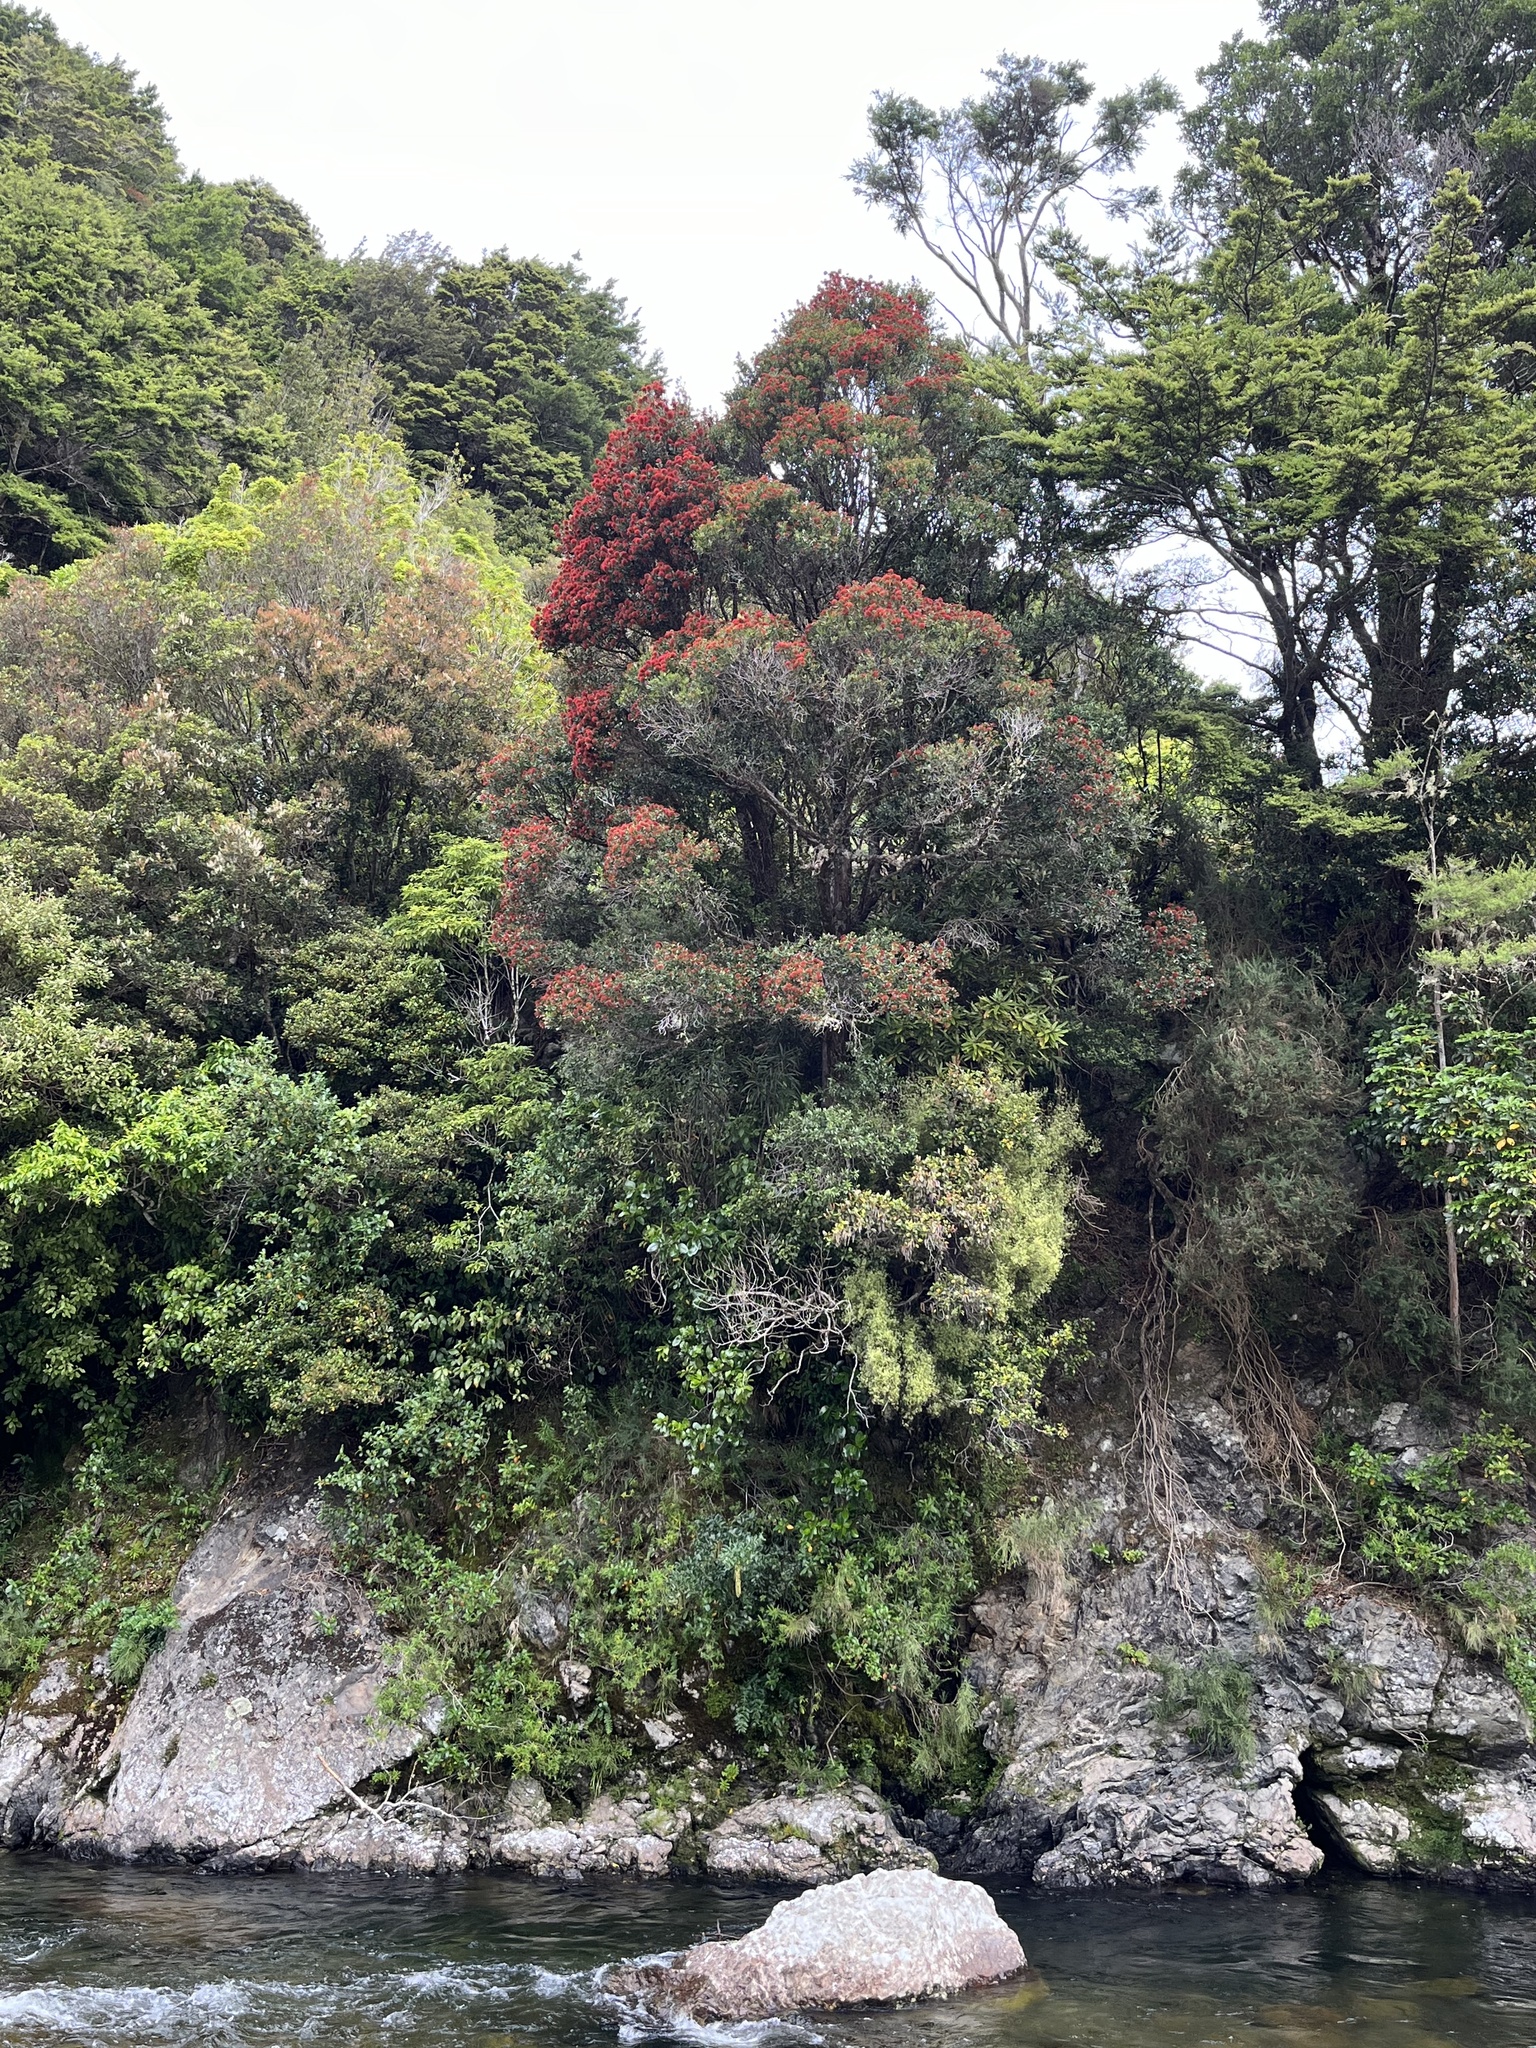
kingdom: Plantae
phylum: Tracheophyta
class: Magnoliopsida
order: Myrtales
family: Myrtaceae
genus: Metrosideros
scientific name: Metrosideros robusta
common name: Northern rata
